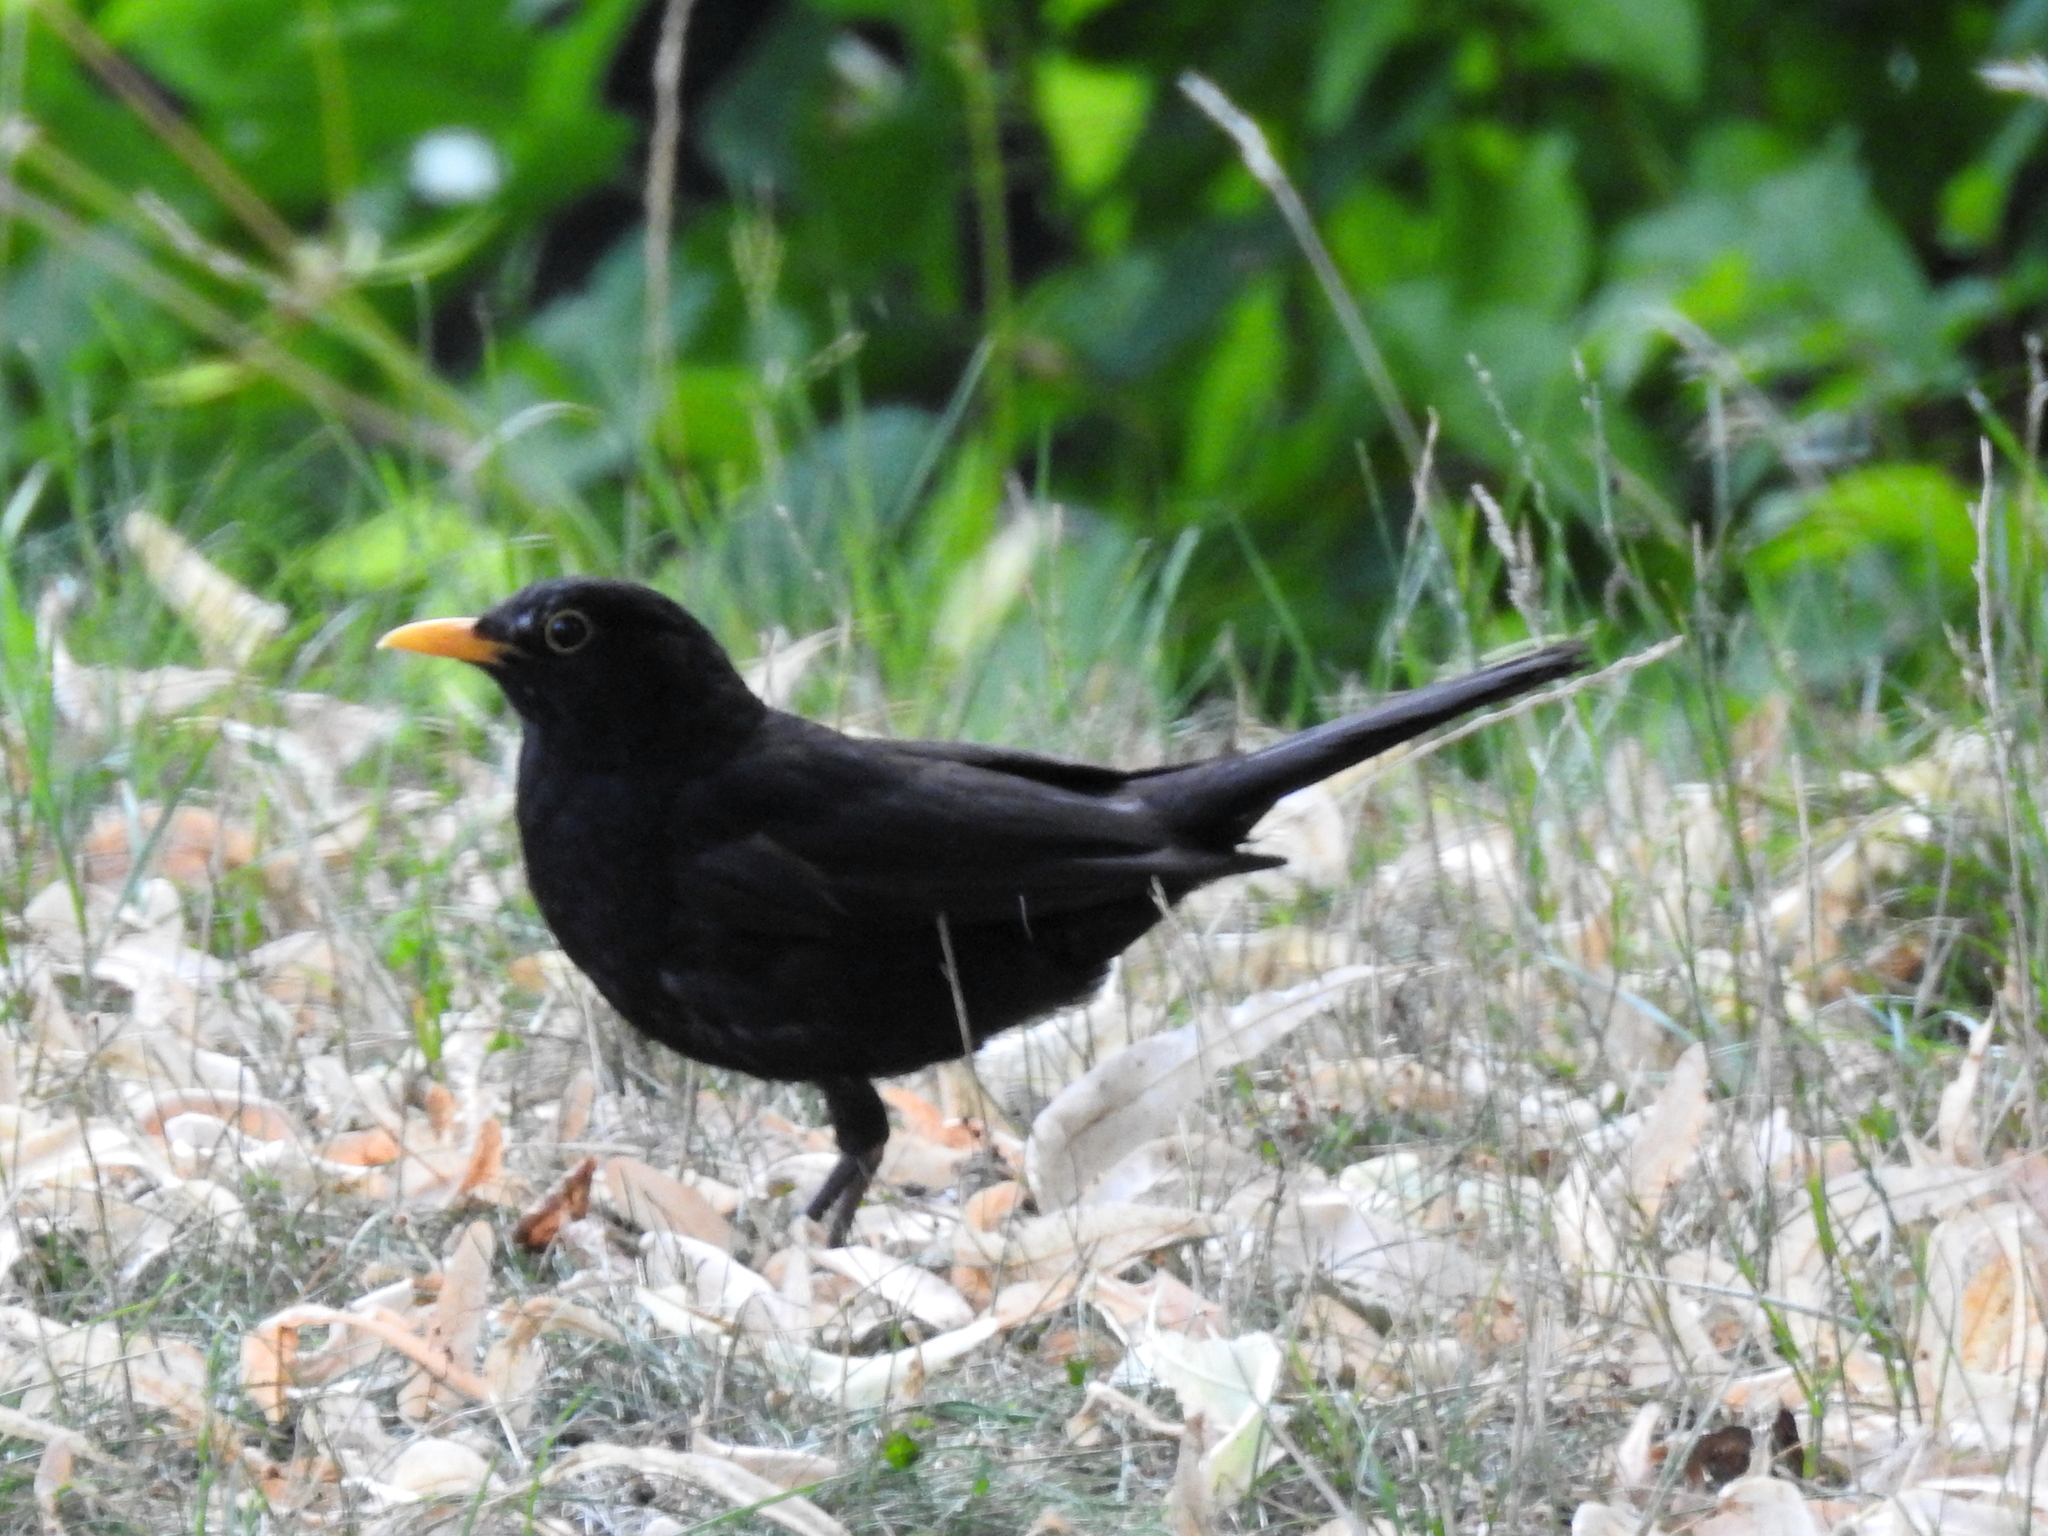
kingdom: Animalia
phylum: Chordata
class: Aves
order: Passeriformes
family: Turdidae
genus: Turdus
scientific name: Turdus merula
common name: Common blackbird
